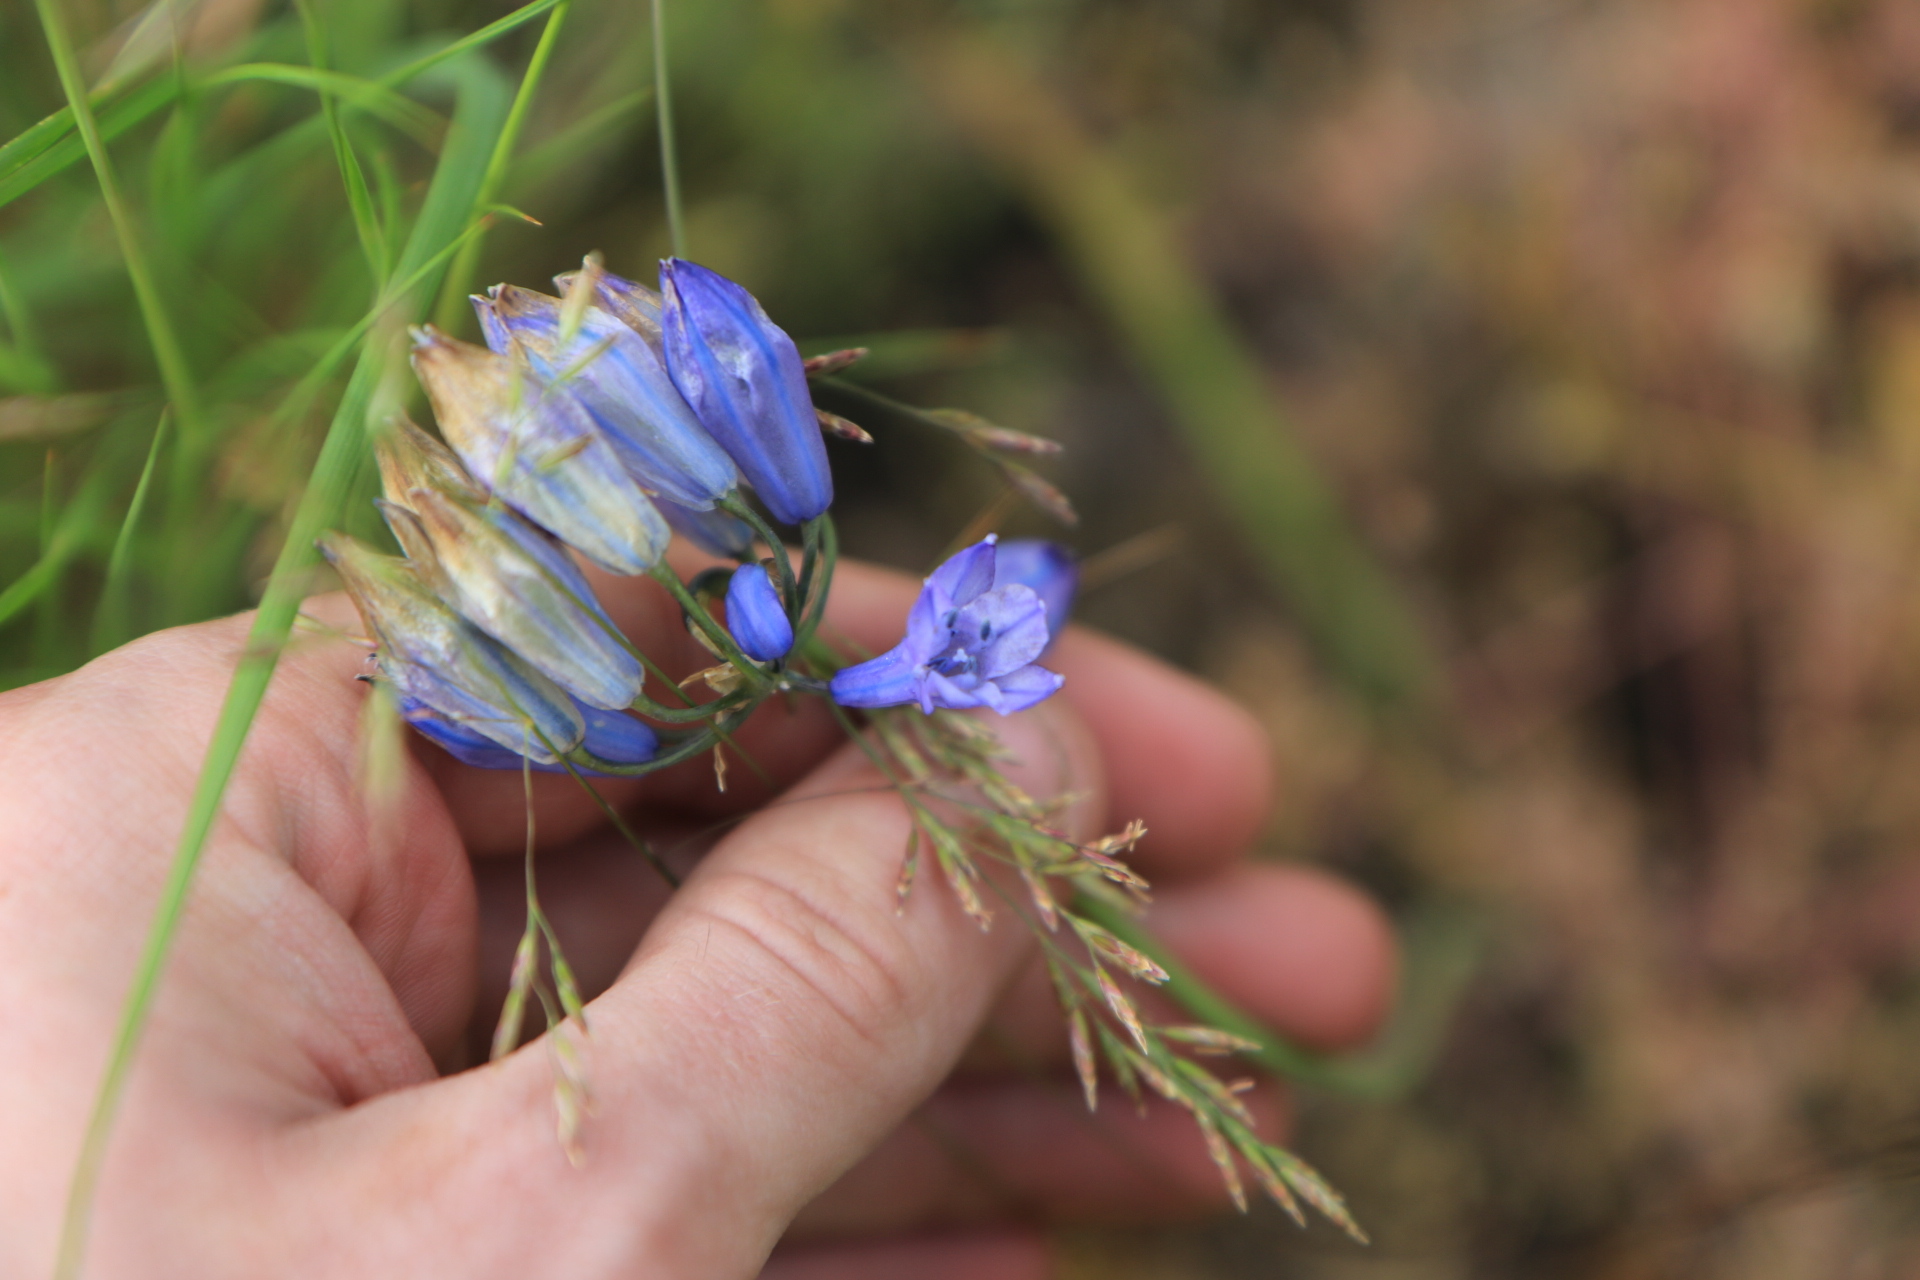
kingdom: Plantae
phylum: Tracheophyta
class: Liliopsida
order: Asparagales
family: Asparagaceae
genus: Triteleia
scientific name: Triteleia grandiflora
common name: Wild hyacinth
